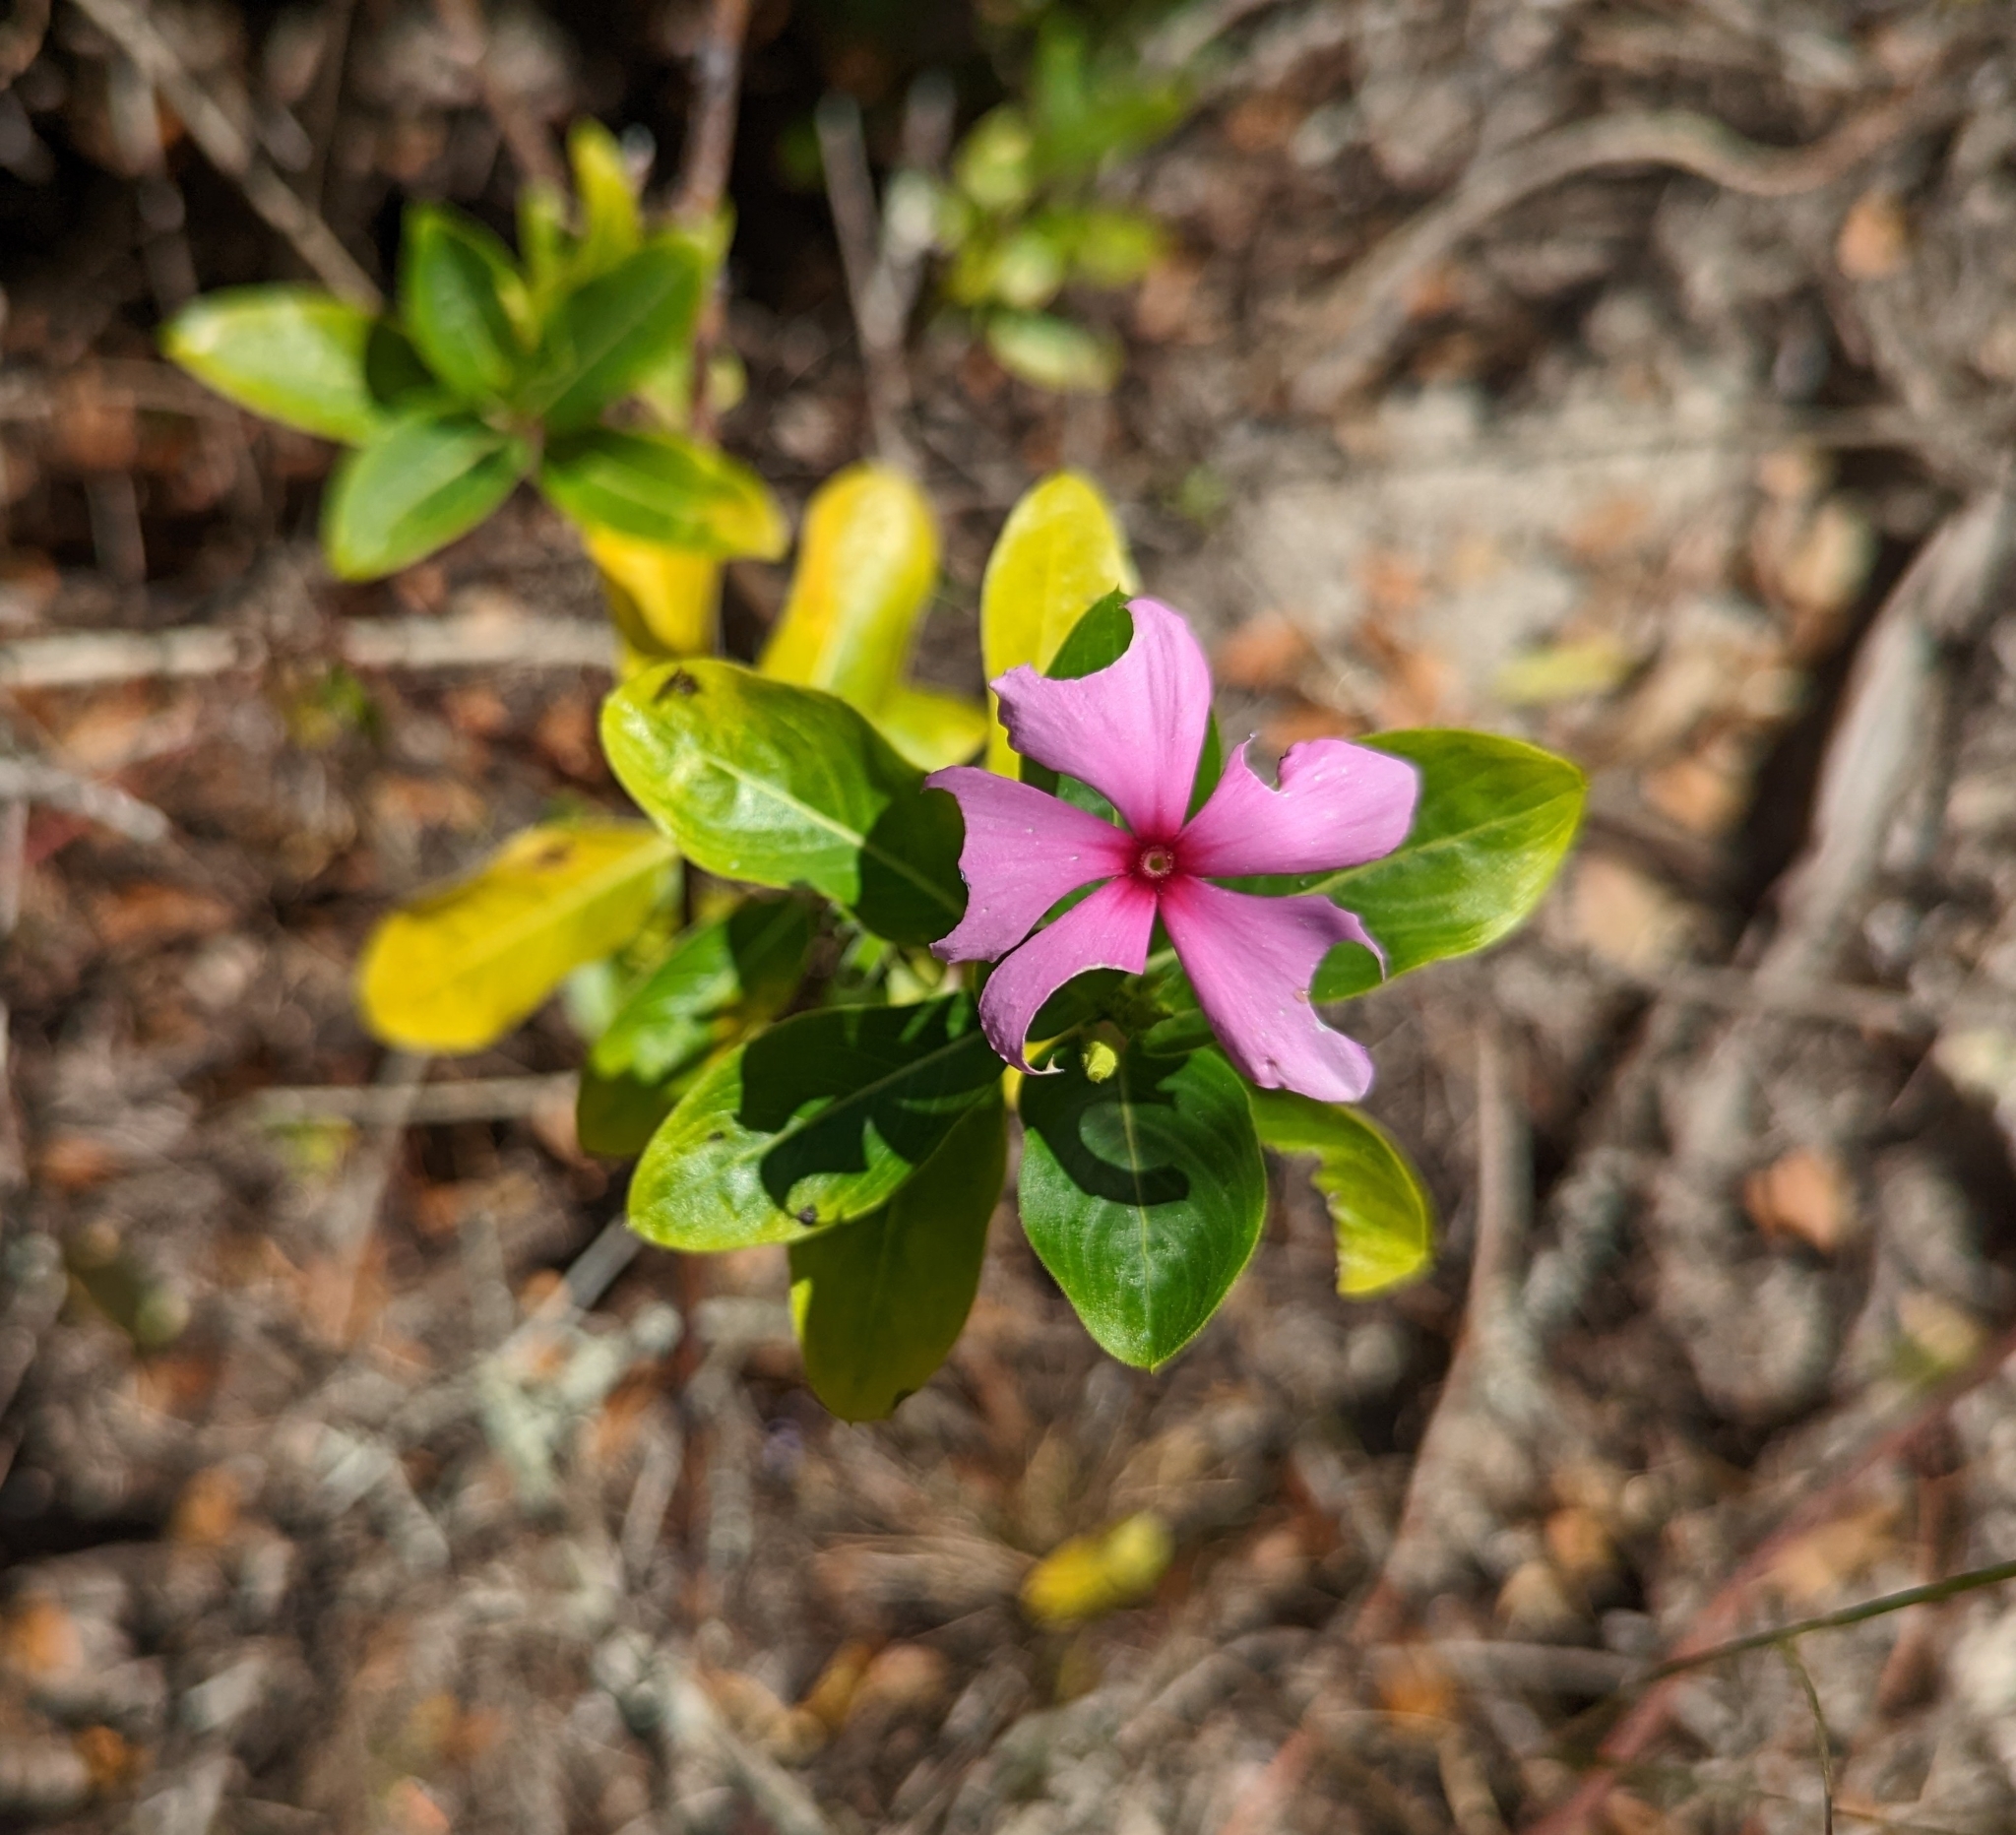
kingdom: Plantae
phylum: Tracheophyta
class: Magnoliopsida
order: Gentianales
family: Apocynaceae
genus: Catharanthus
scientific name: Catharanthus roseus
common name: Madagascar periwinkle
